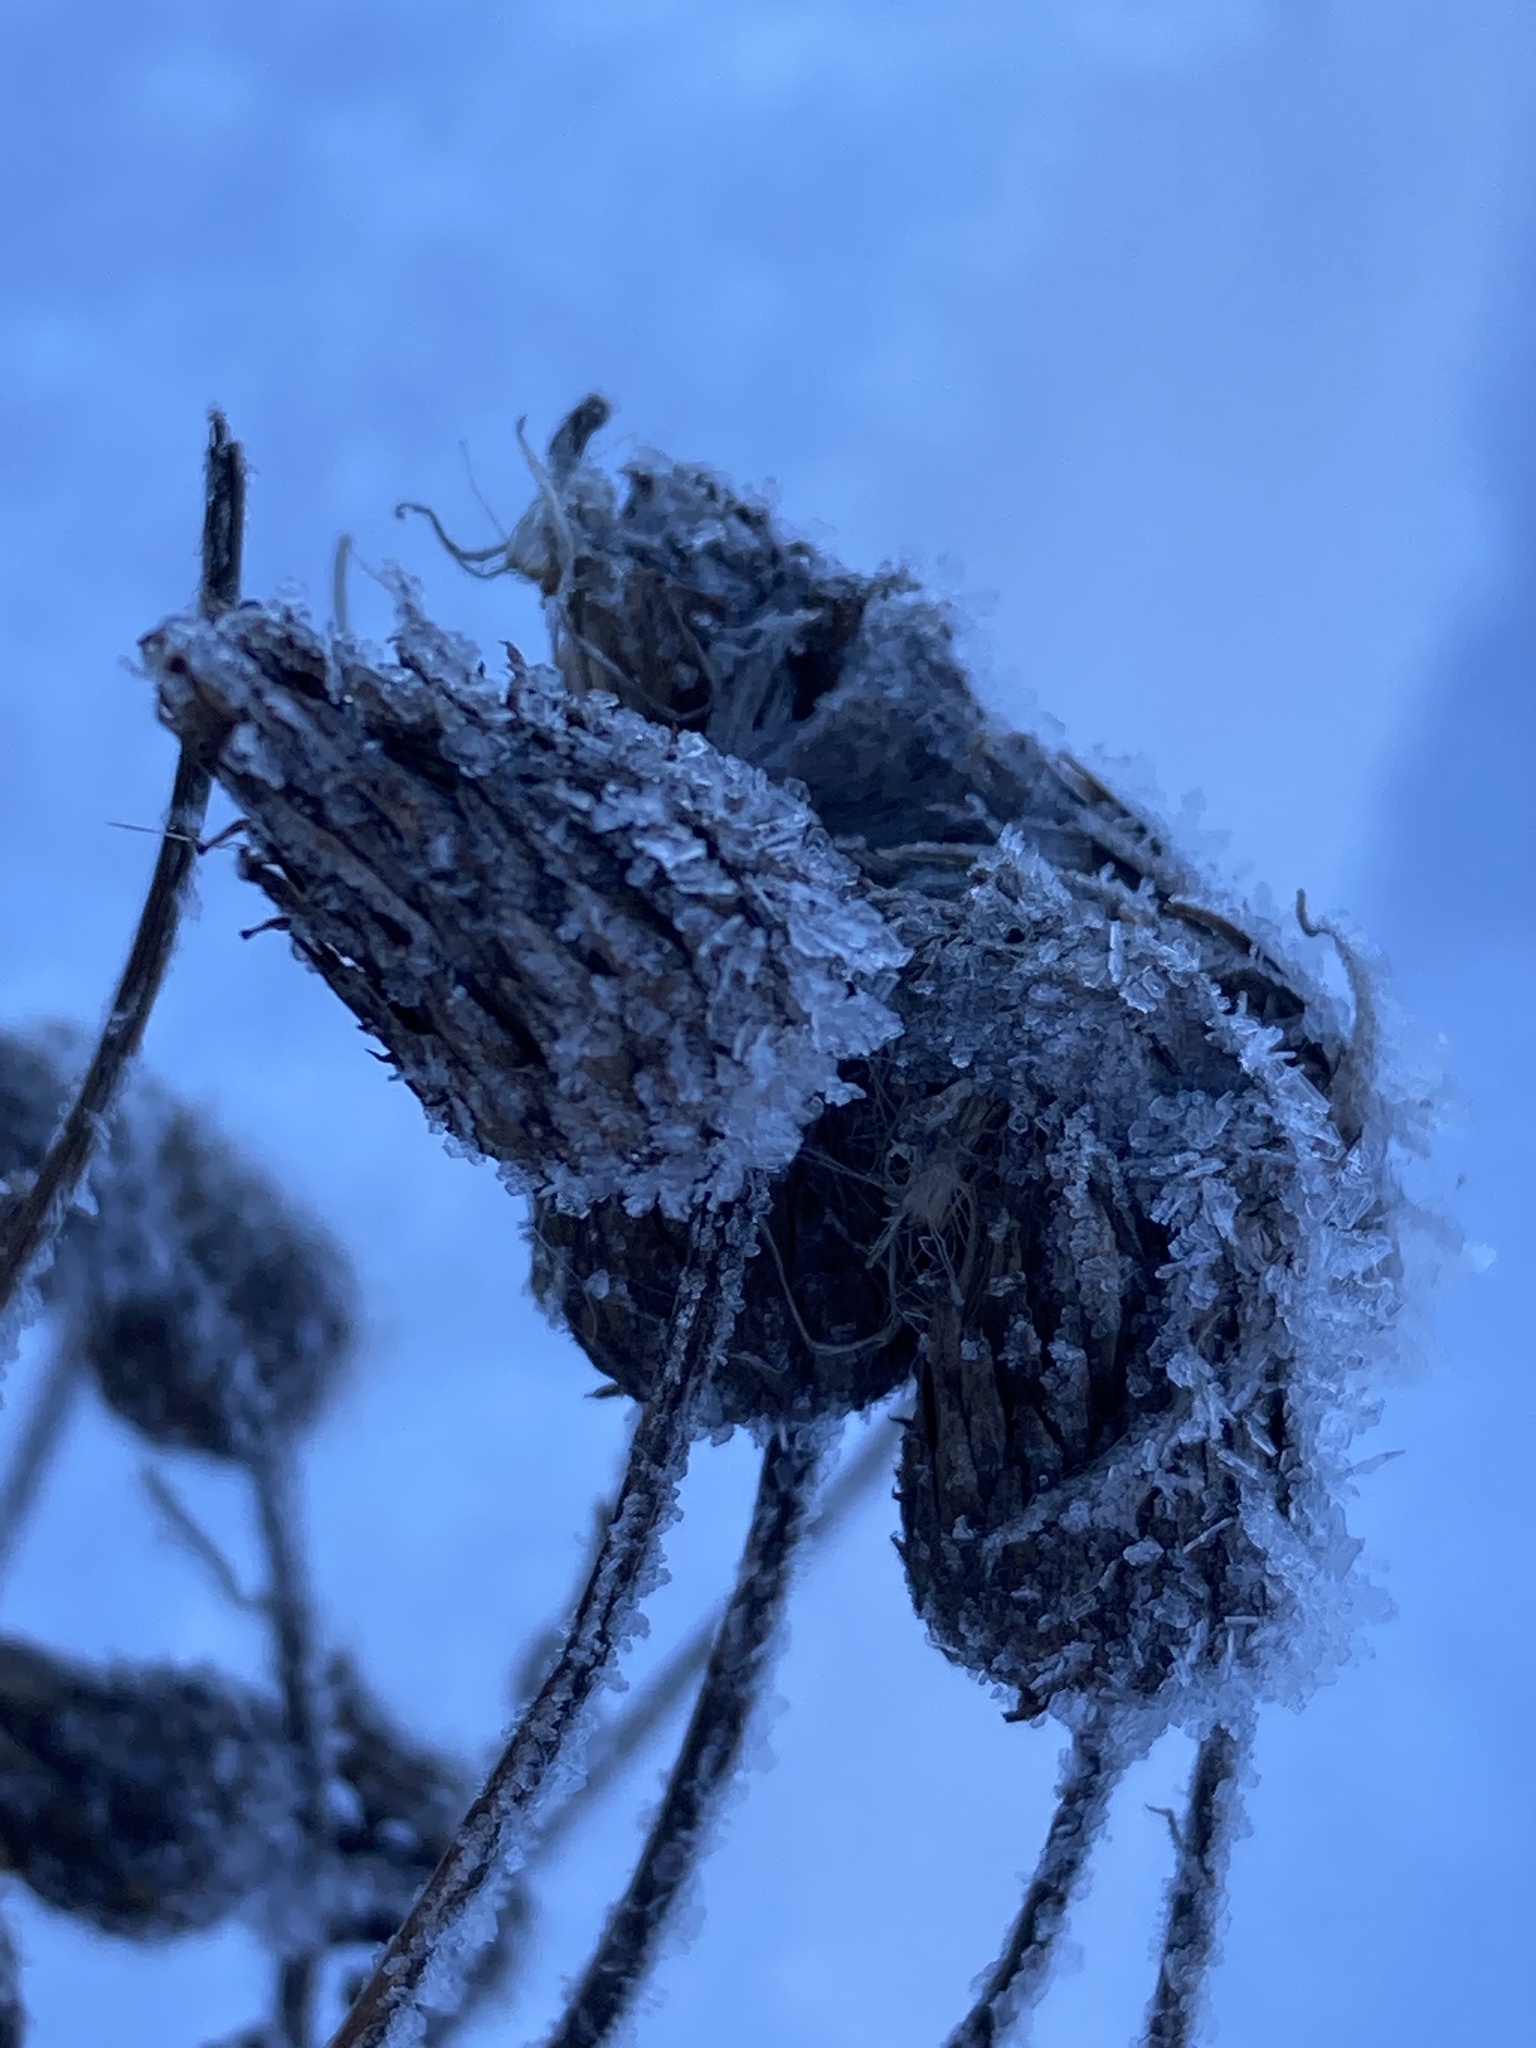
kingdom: Plantae
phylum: Tracheophyta
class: Magnoliopsida
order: Asterales
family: Asteraceae
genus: Cirsium
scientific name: Cirsium arvense
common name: Creeping thistle
